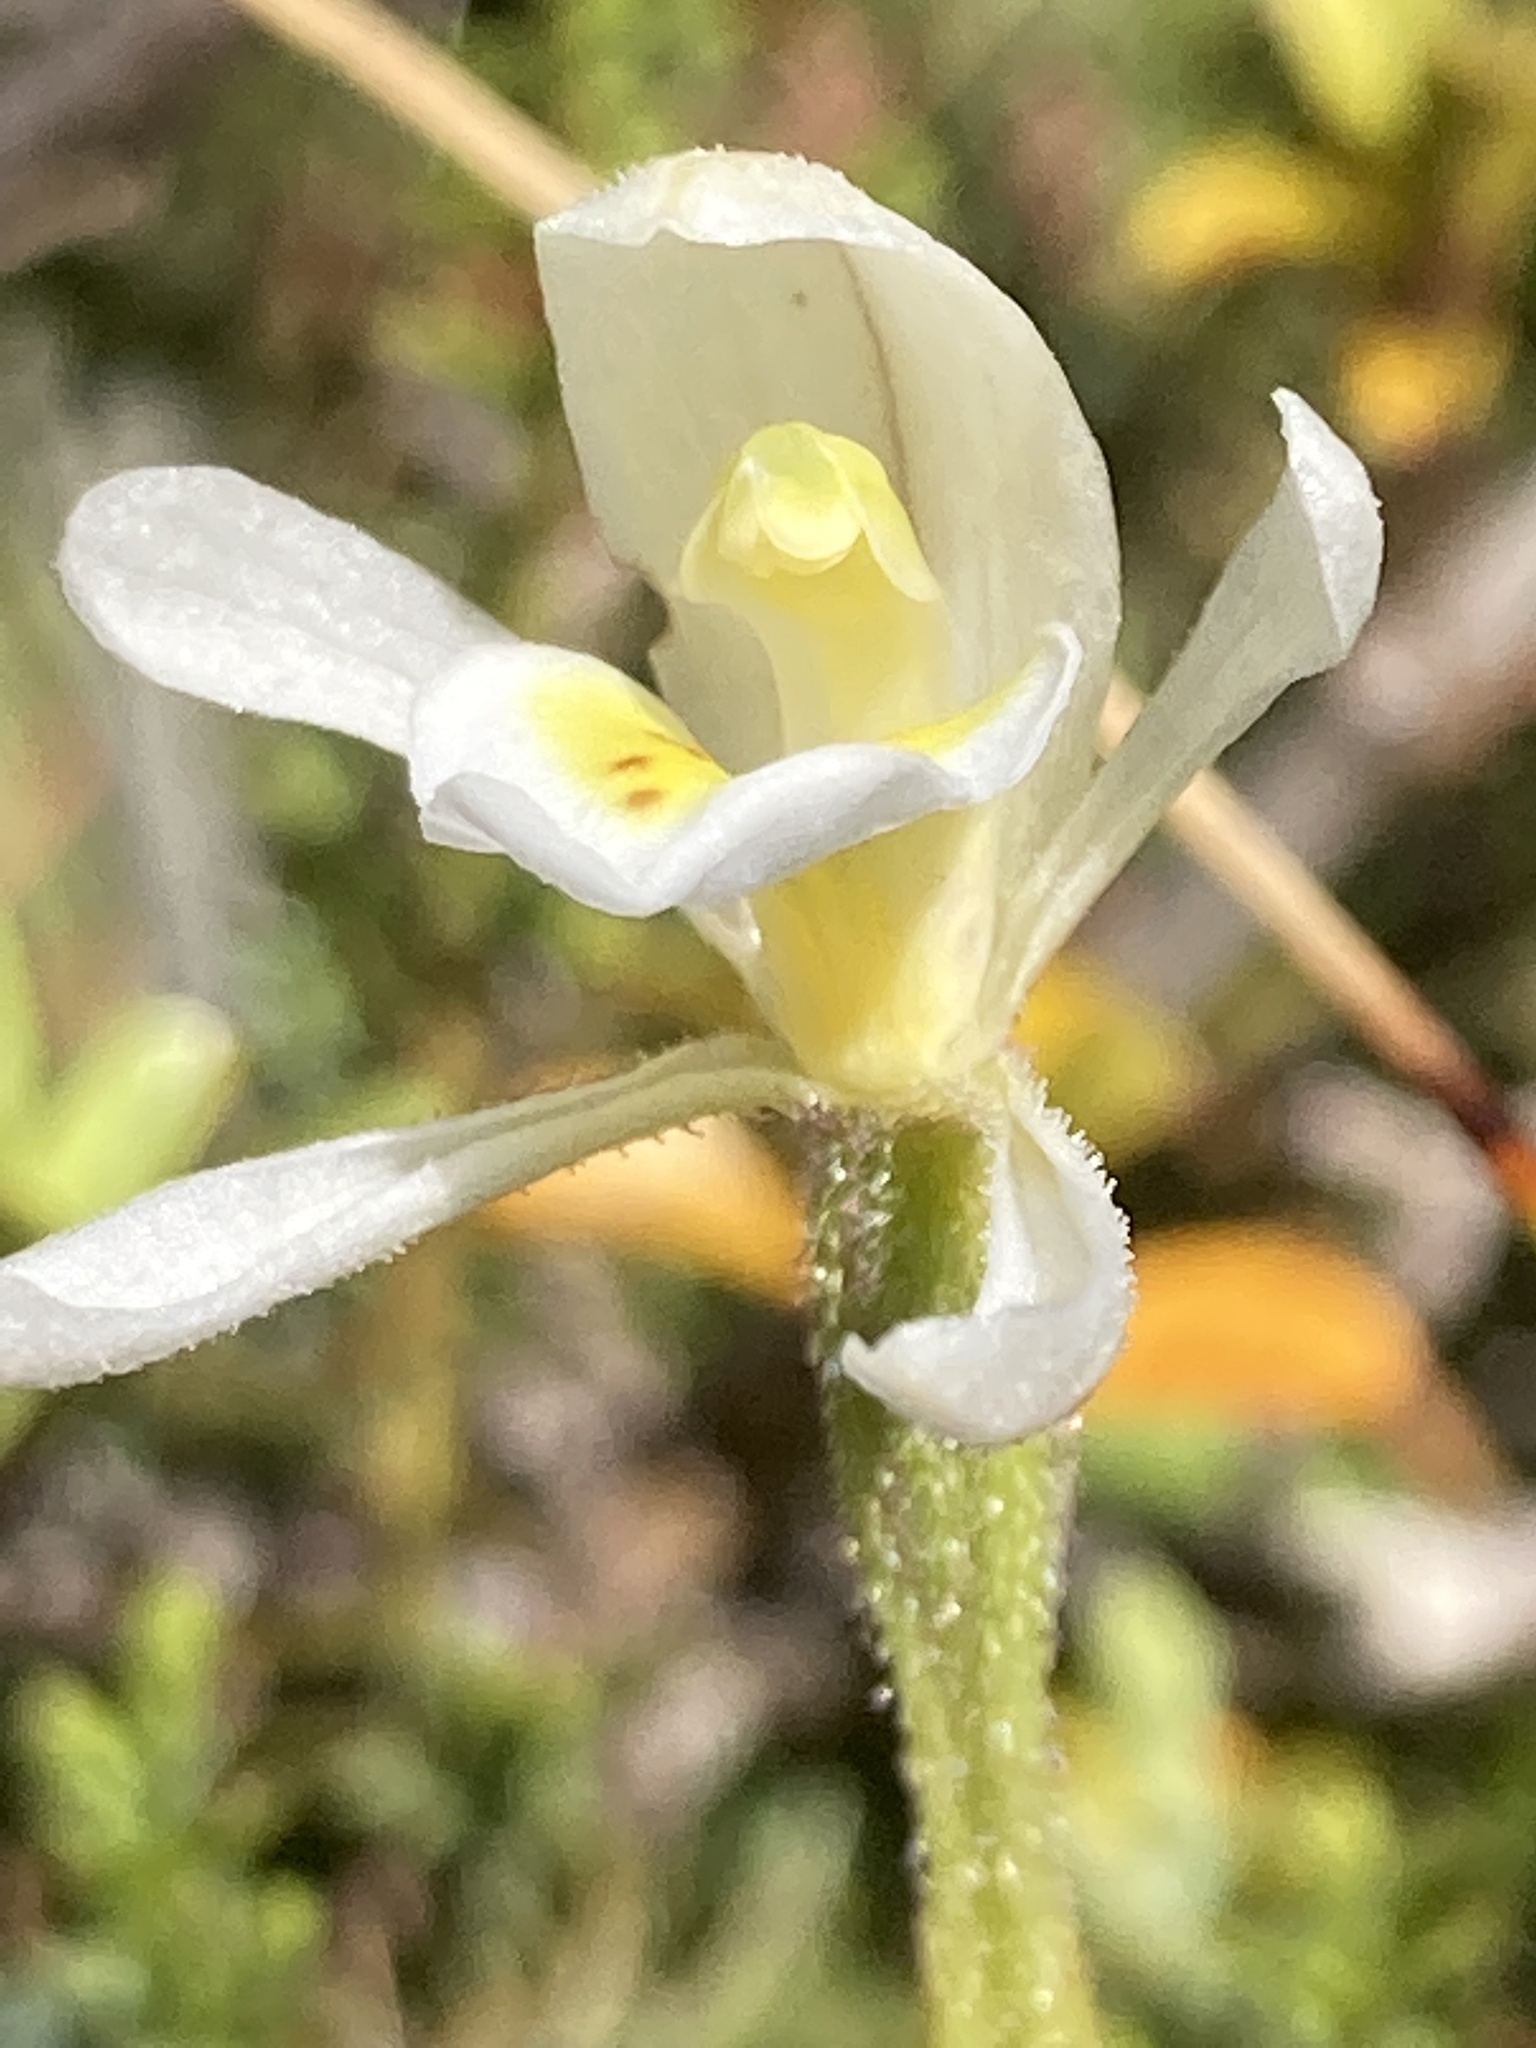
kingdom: Plantae
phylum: Tracheophyta
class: Liliopsida
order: Asparagales
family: Orchidaceae
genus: Aporostylis
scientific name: Aporostylis bifolia
